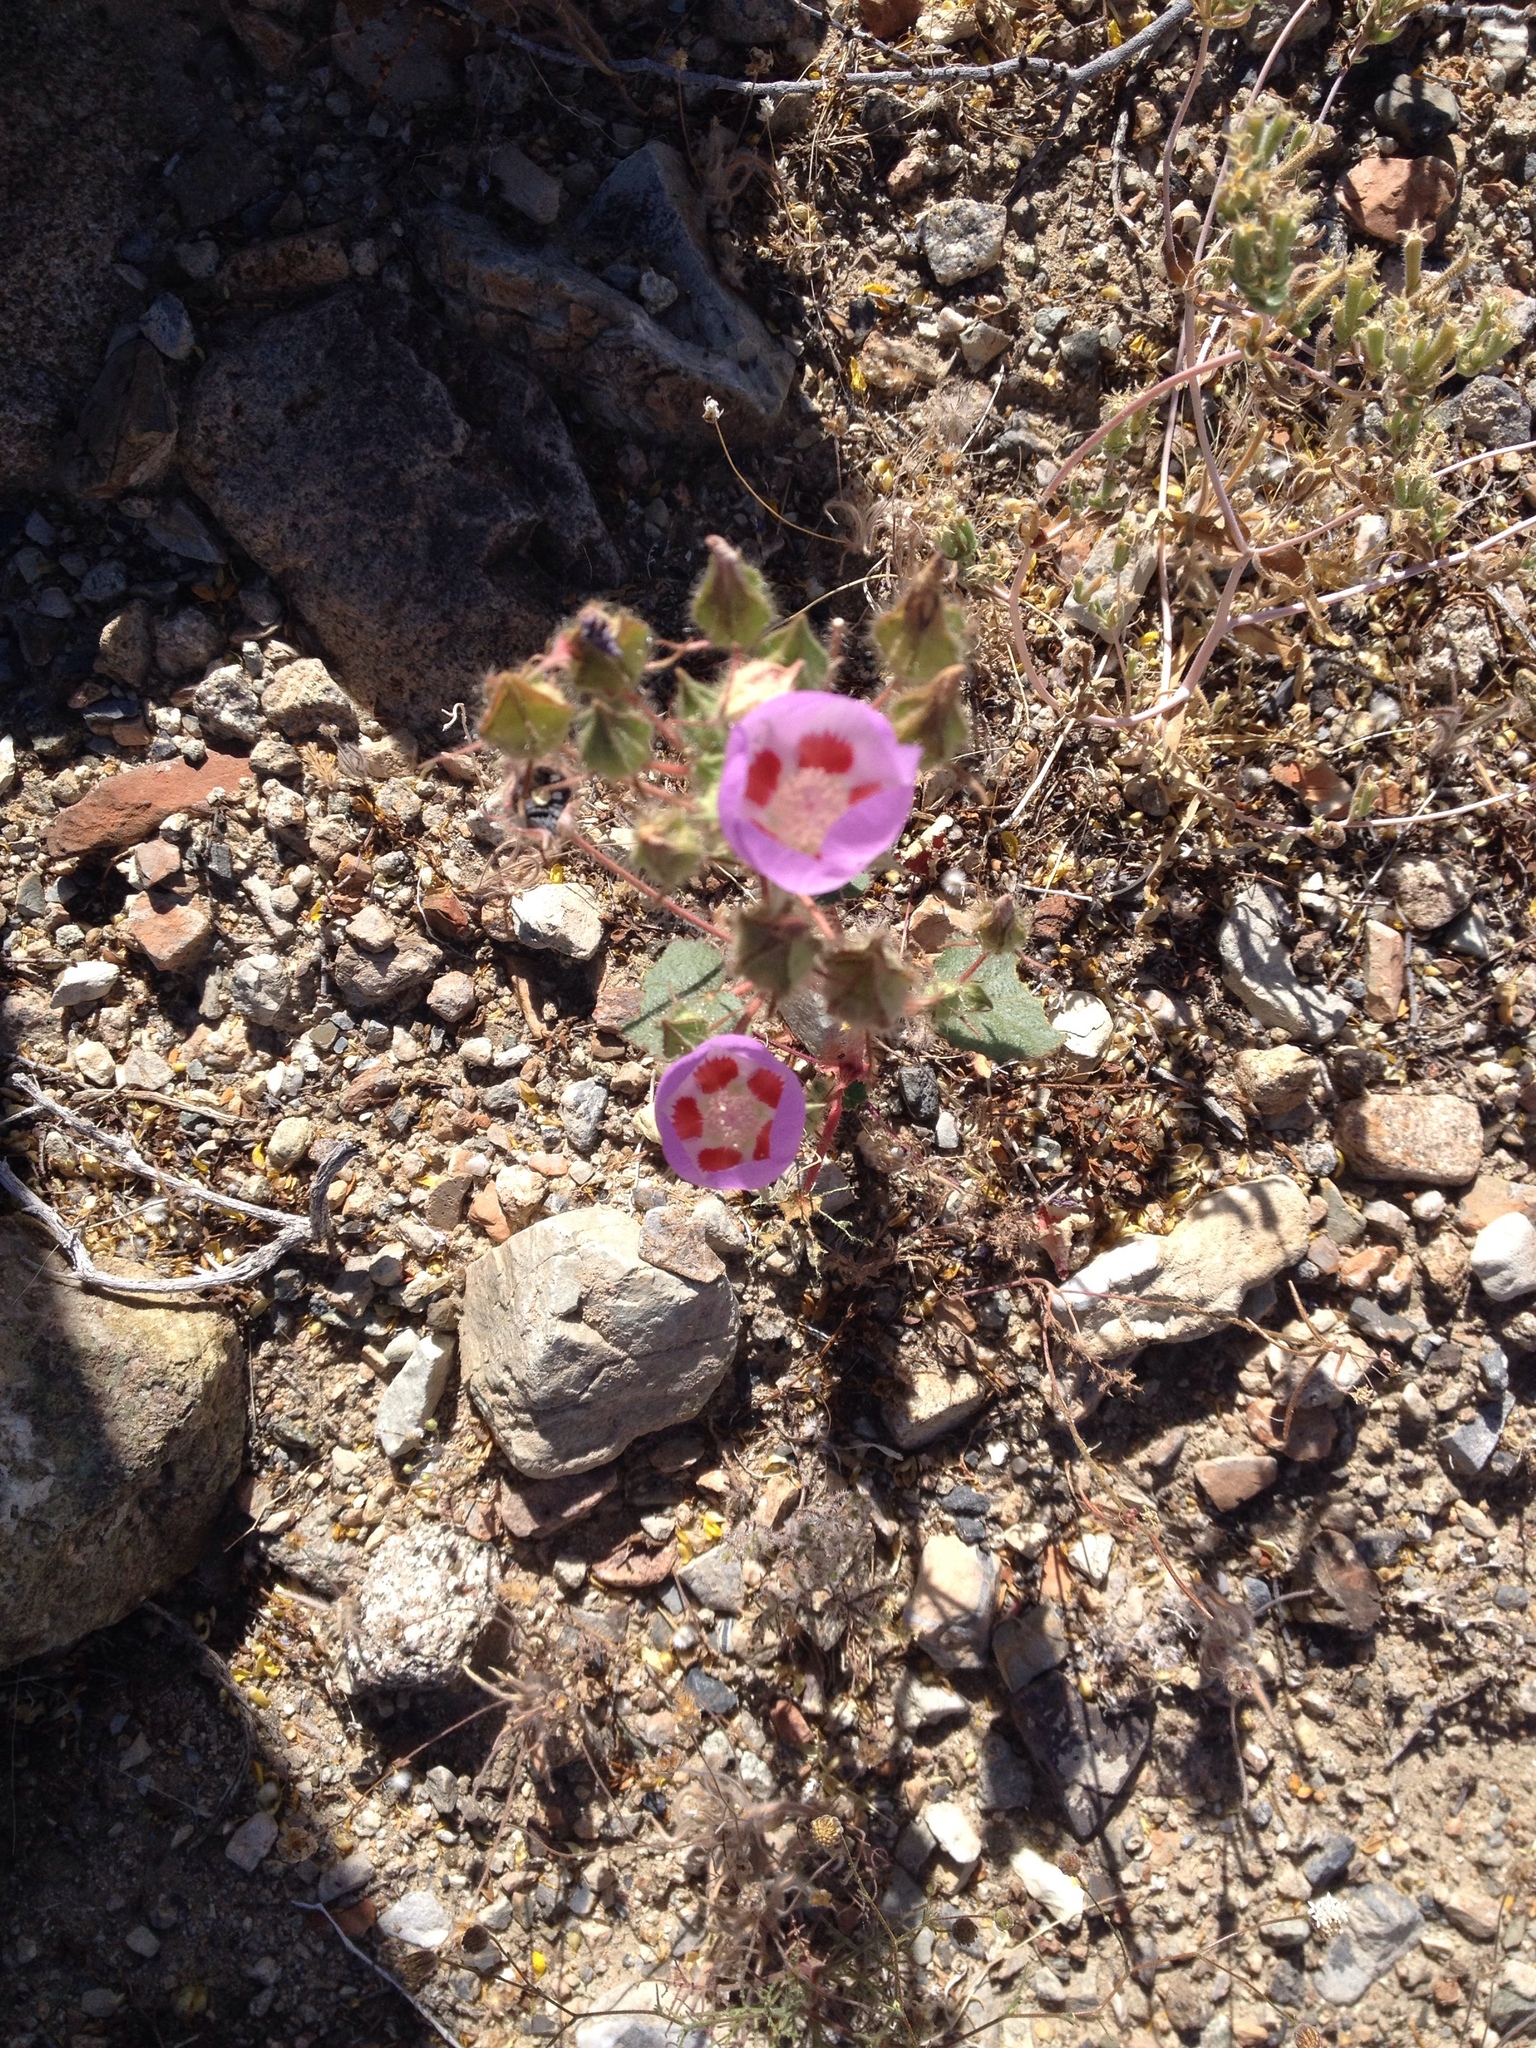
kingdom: Plantae
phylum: Tracheophyta
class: Magnoliopsida
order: Malvales
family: Malvaceae
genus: Eremalche
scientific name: Eremalche rotundifolia
